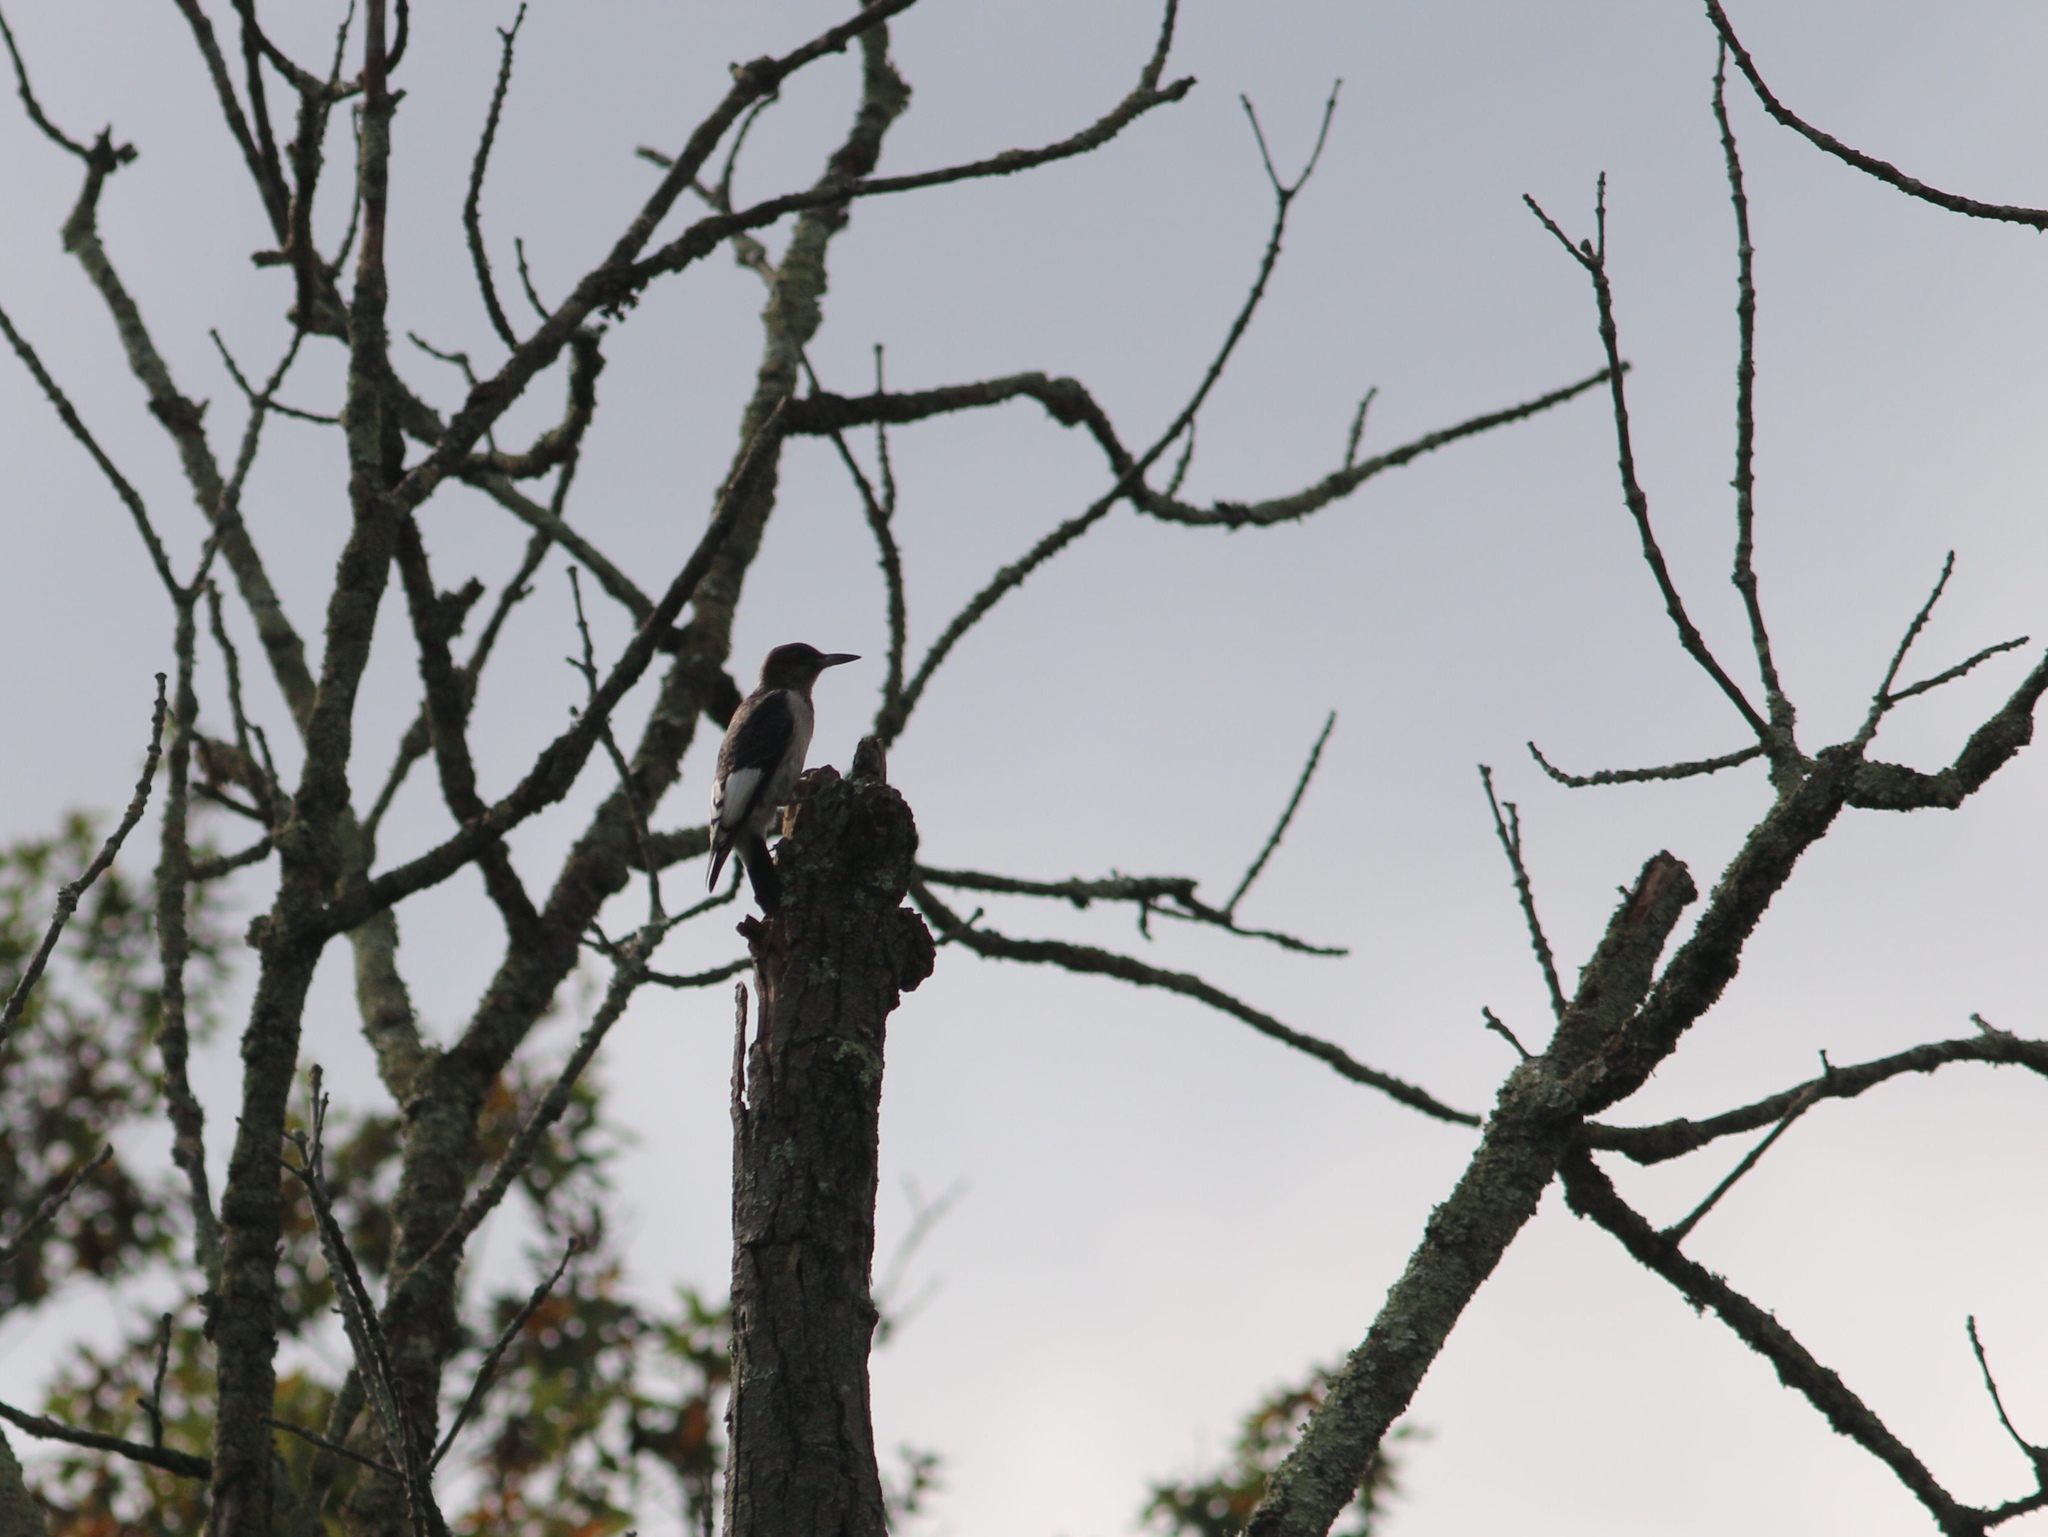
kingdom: Animalia
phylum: Chordata
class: Aves
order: Piciformes
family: Picidae
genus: Melanerpes
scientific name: Melanerpes erythrocephalus
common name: Red-headed woodpecker
